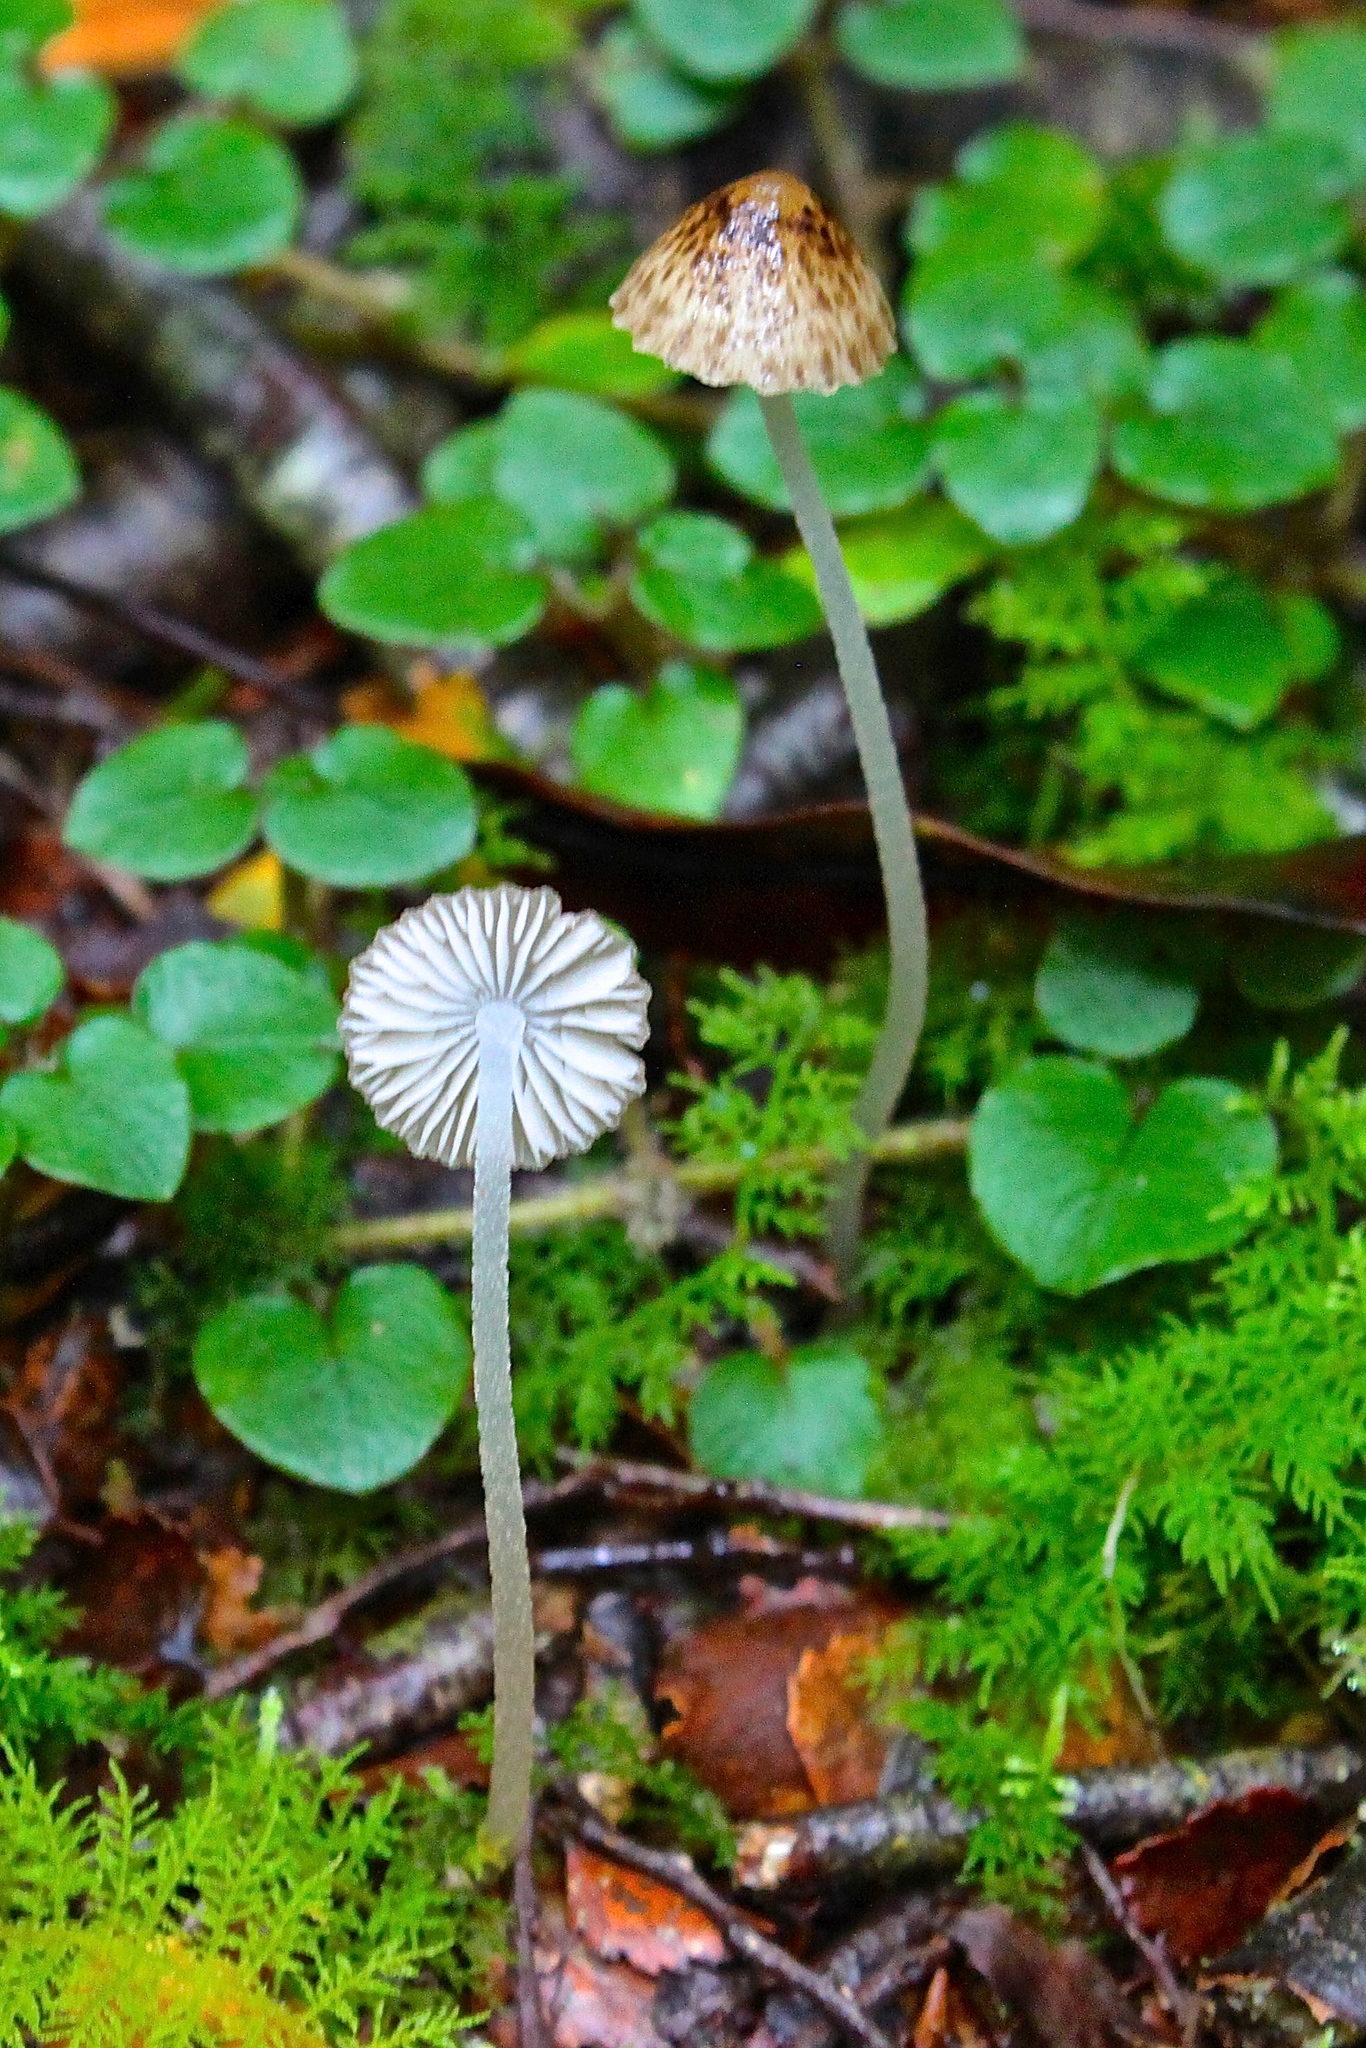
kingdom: Fungi
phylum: Basidiomycota
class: Agaricomycetes
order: Agaricales
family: Porotheleaceae
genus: Pseudohydropus
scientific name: Pseudohydropus parafunebris
